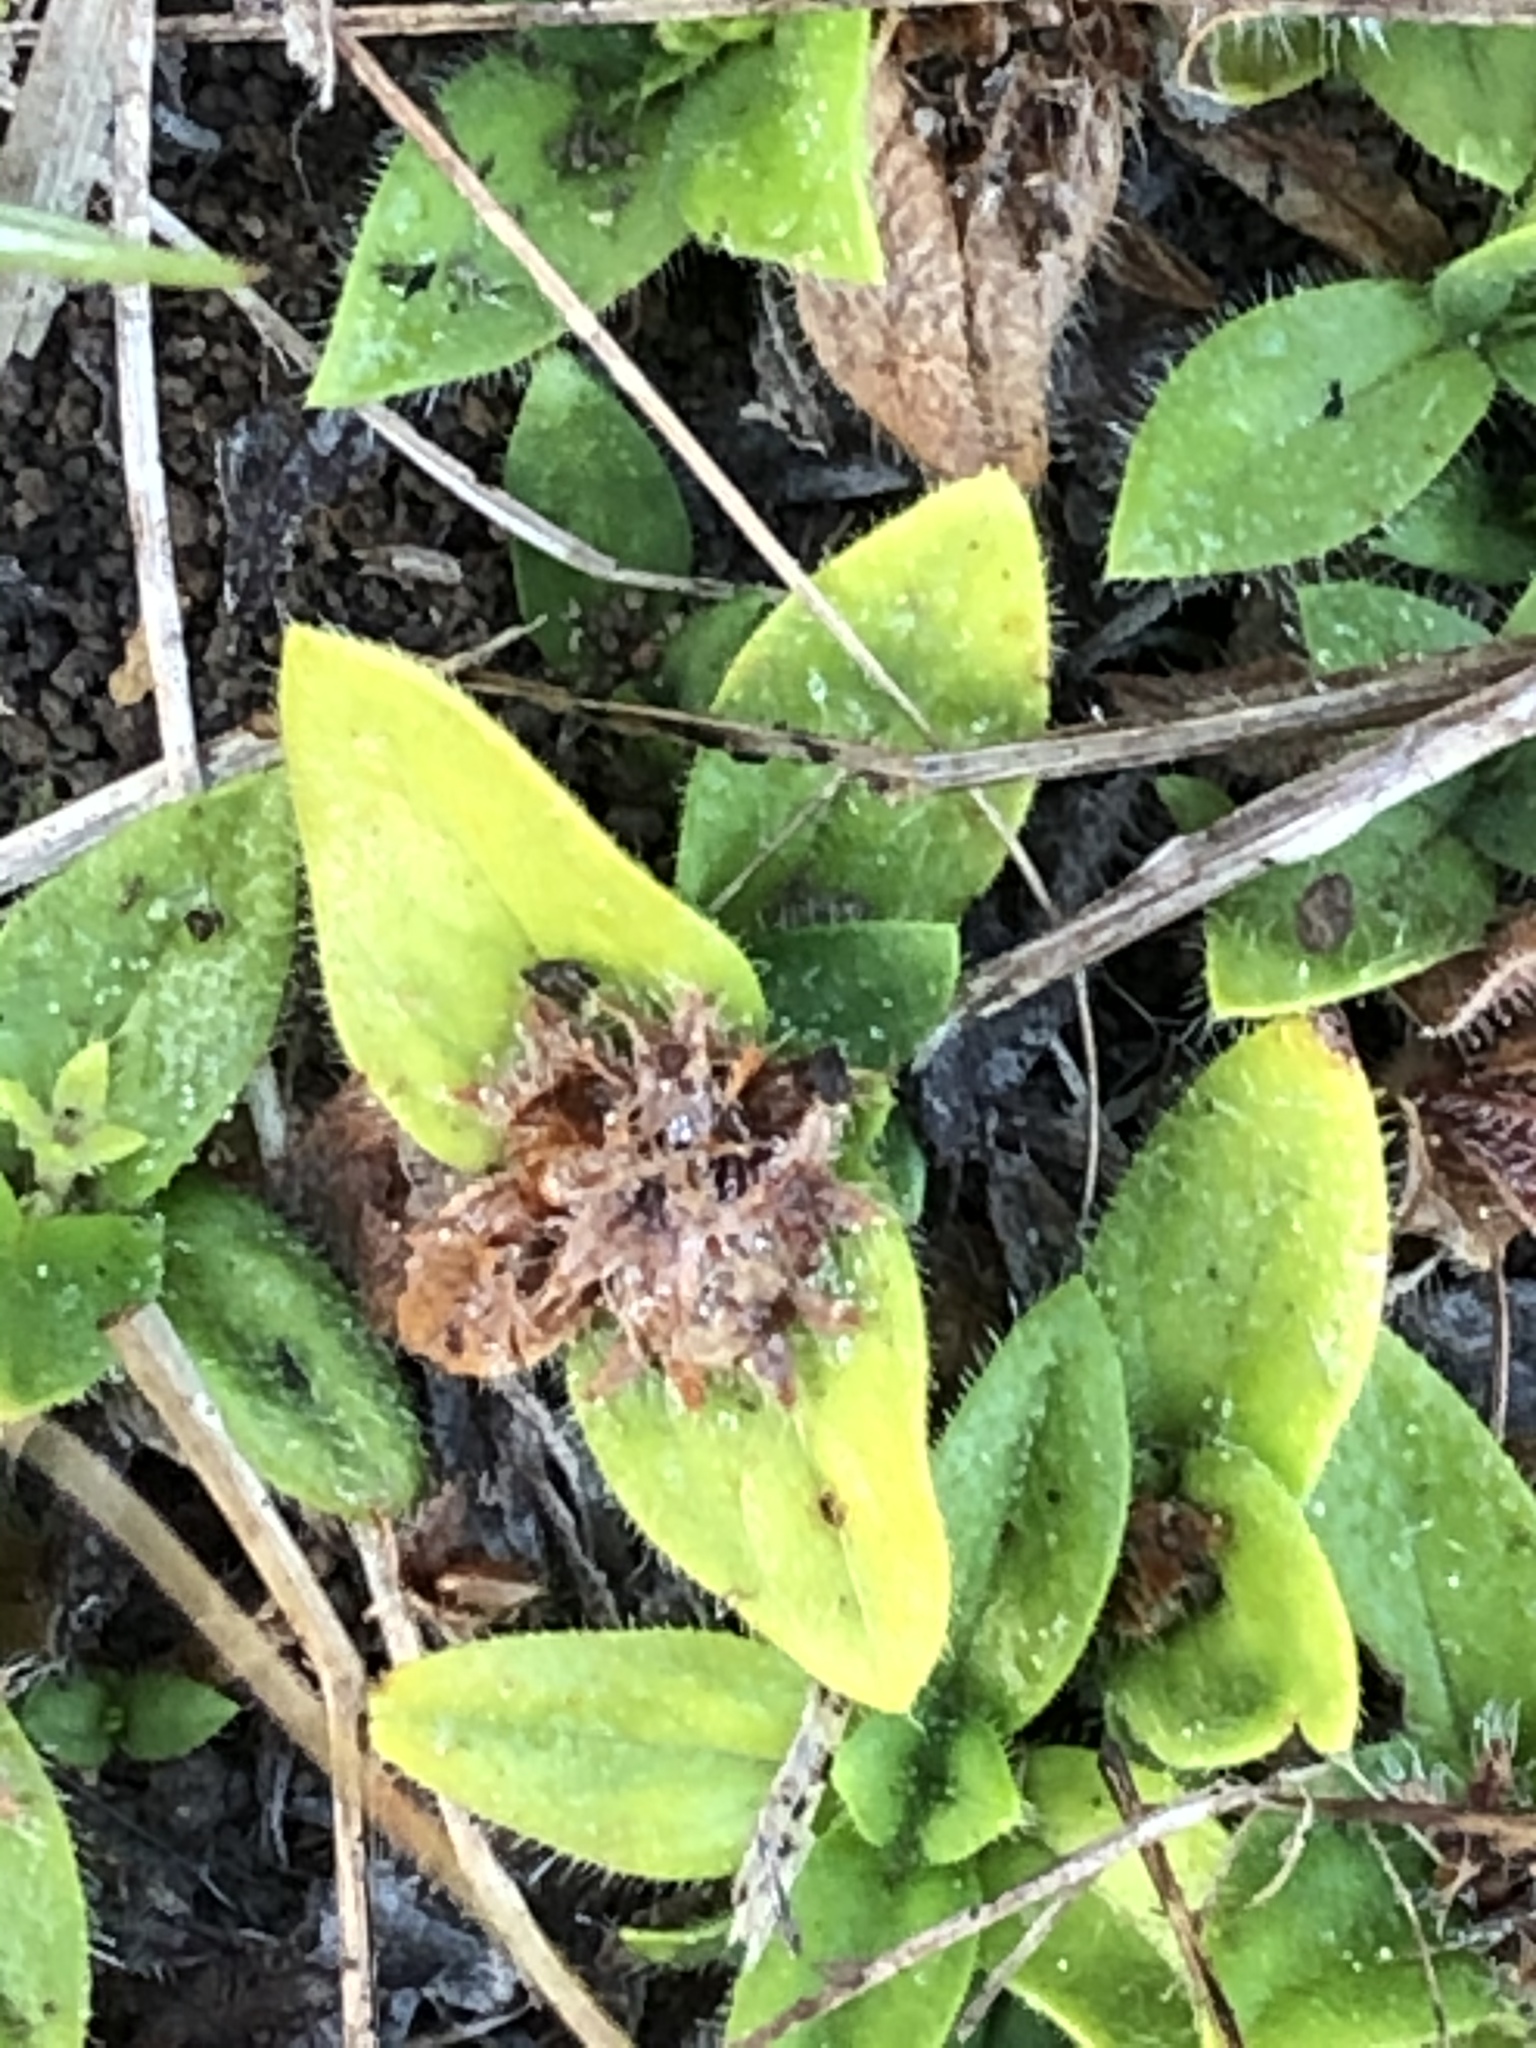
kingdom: Plantae
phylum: Tracheophyta
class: Magnoliopsida
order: Gentianales
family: Rubiaceae
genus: Richardia
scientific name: Richardia brasiliensis
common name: Tropical mexican clover
